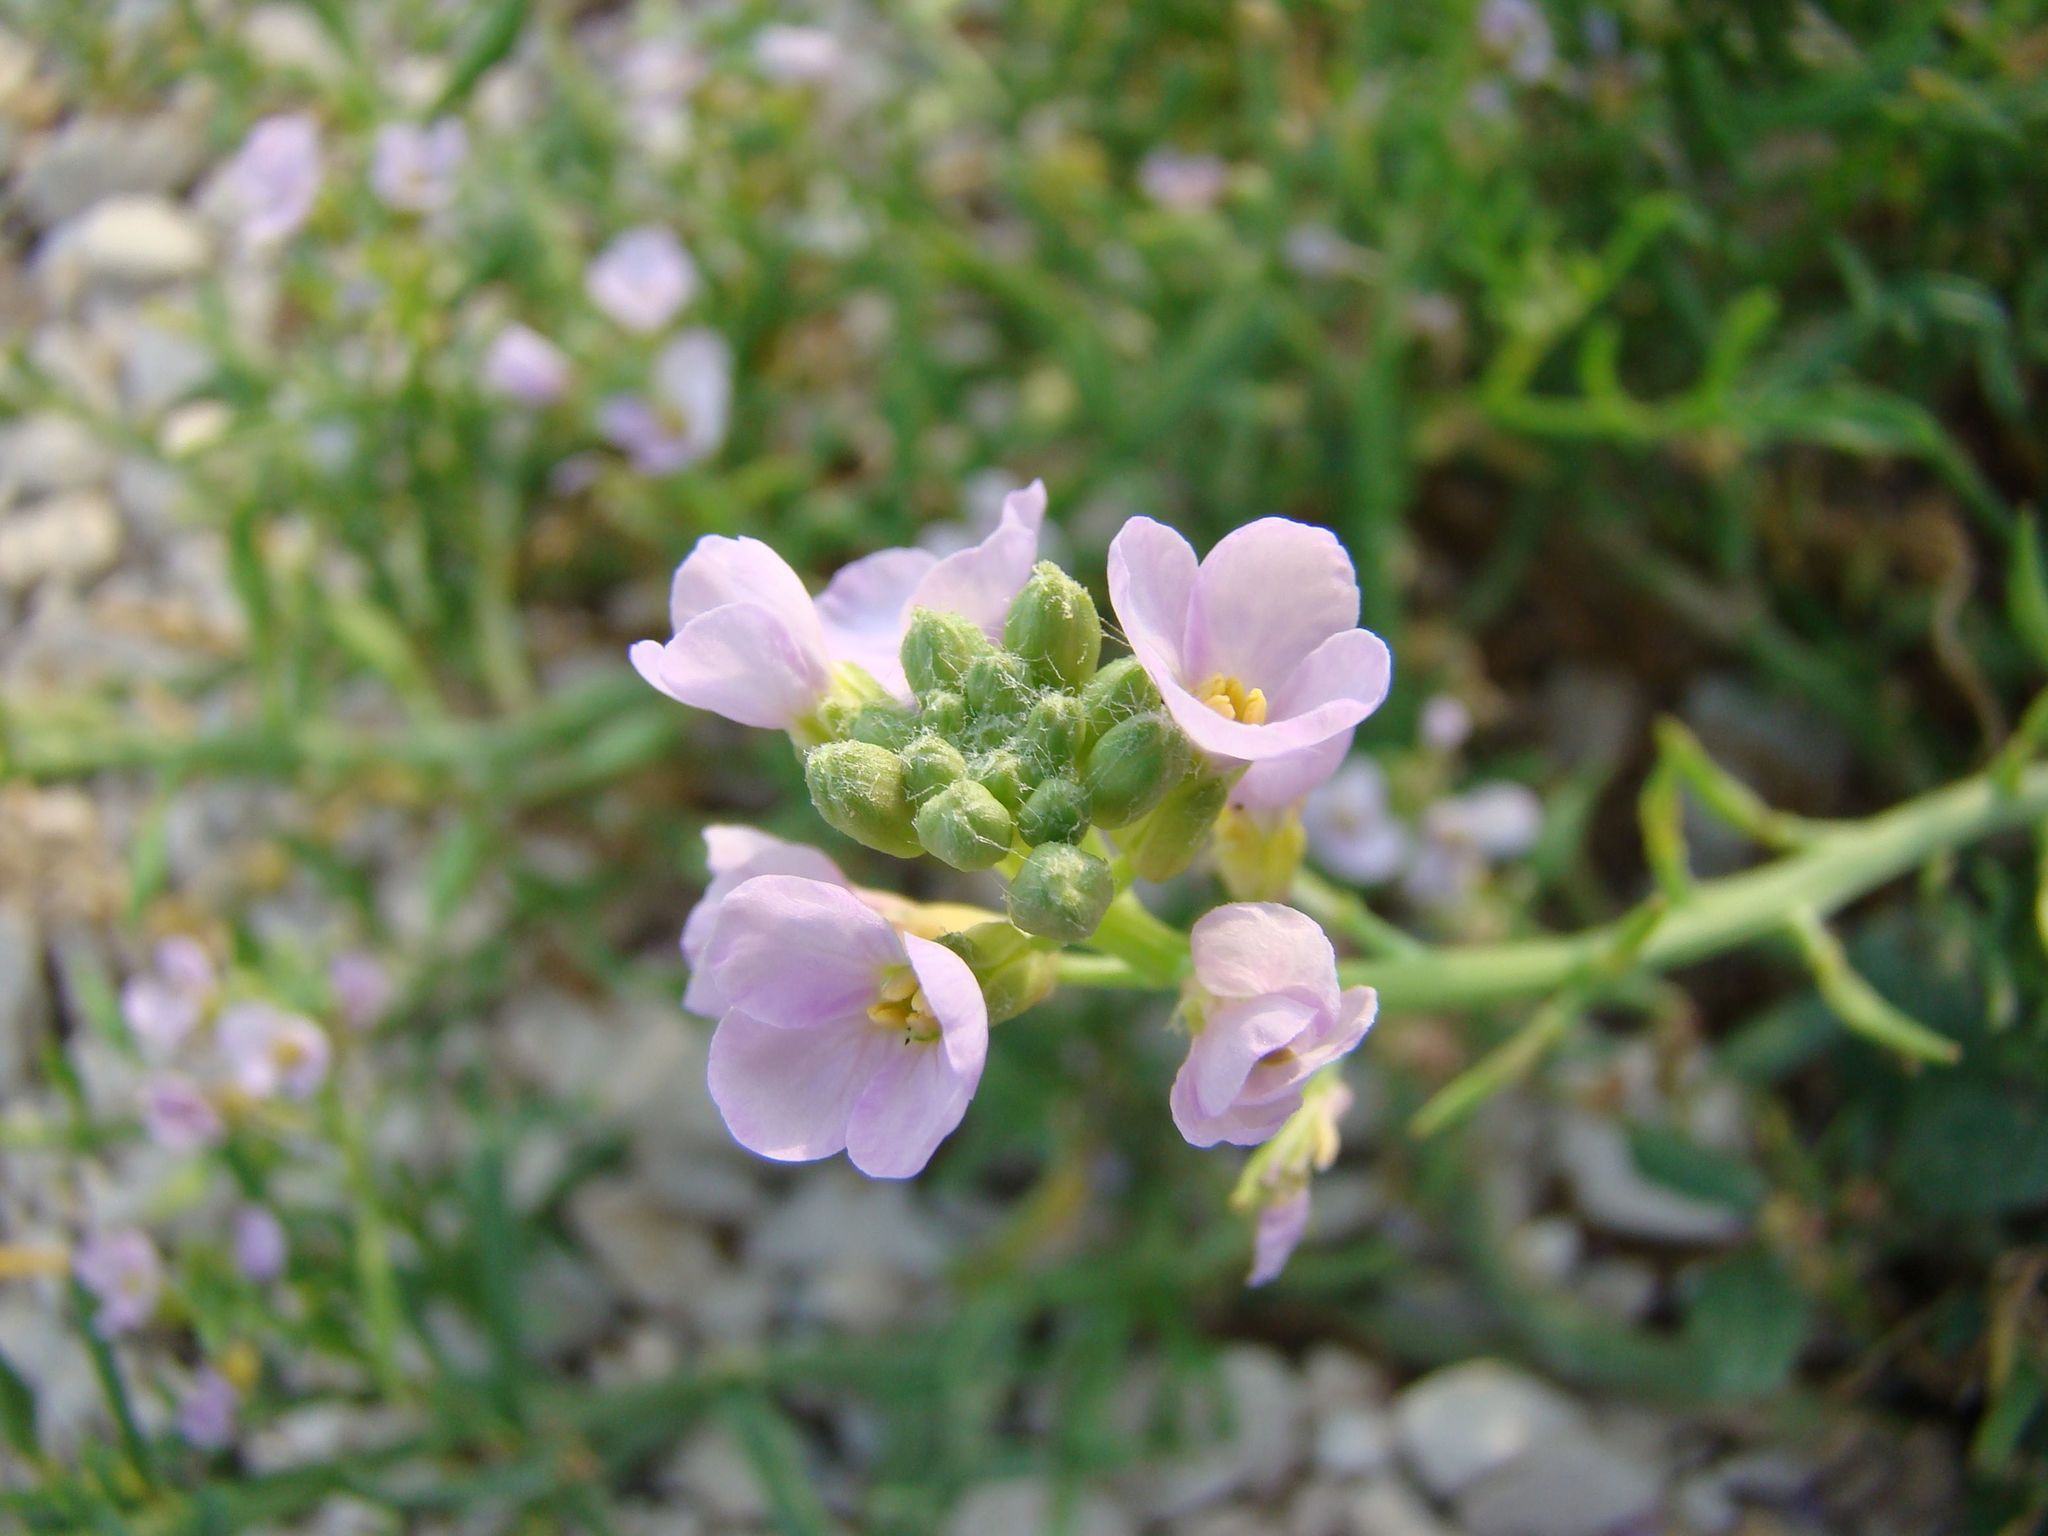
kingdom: Plantae
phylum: Tracheophyta
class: Magnoliopsida
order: Brassicales
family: Brassicaceae
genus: Cakile
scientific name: Cakile maritima
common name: Sea rocket
